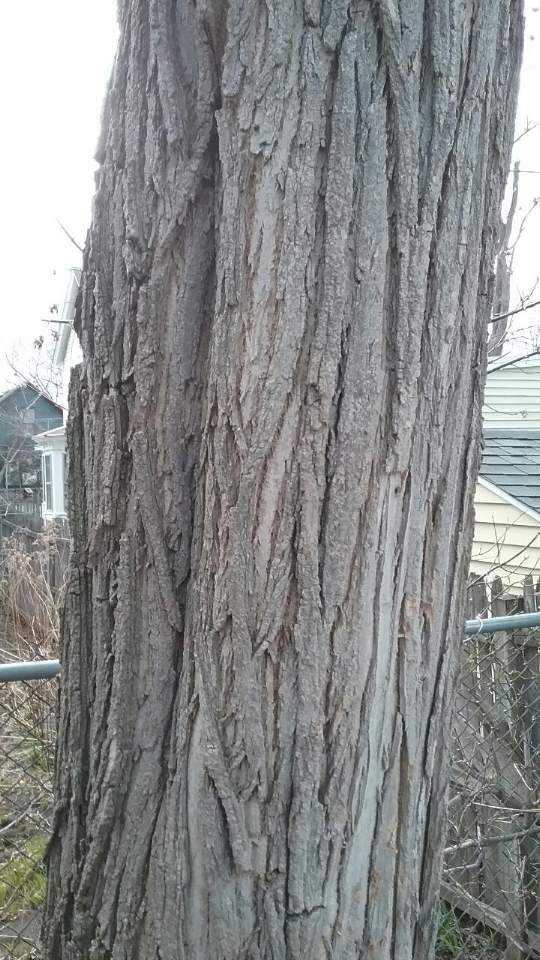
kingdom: Plantae
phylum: Tracheophyta
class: Magnoliopsida
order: Fabales
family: Fabaceae
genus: Robinia
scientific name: Robinia pseudoacacia
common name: Black locust
